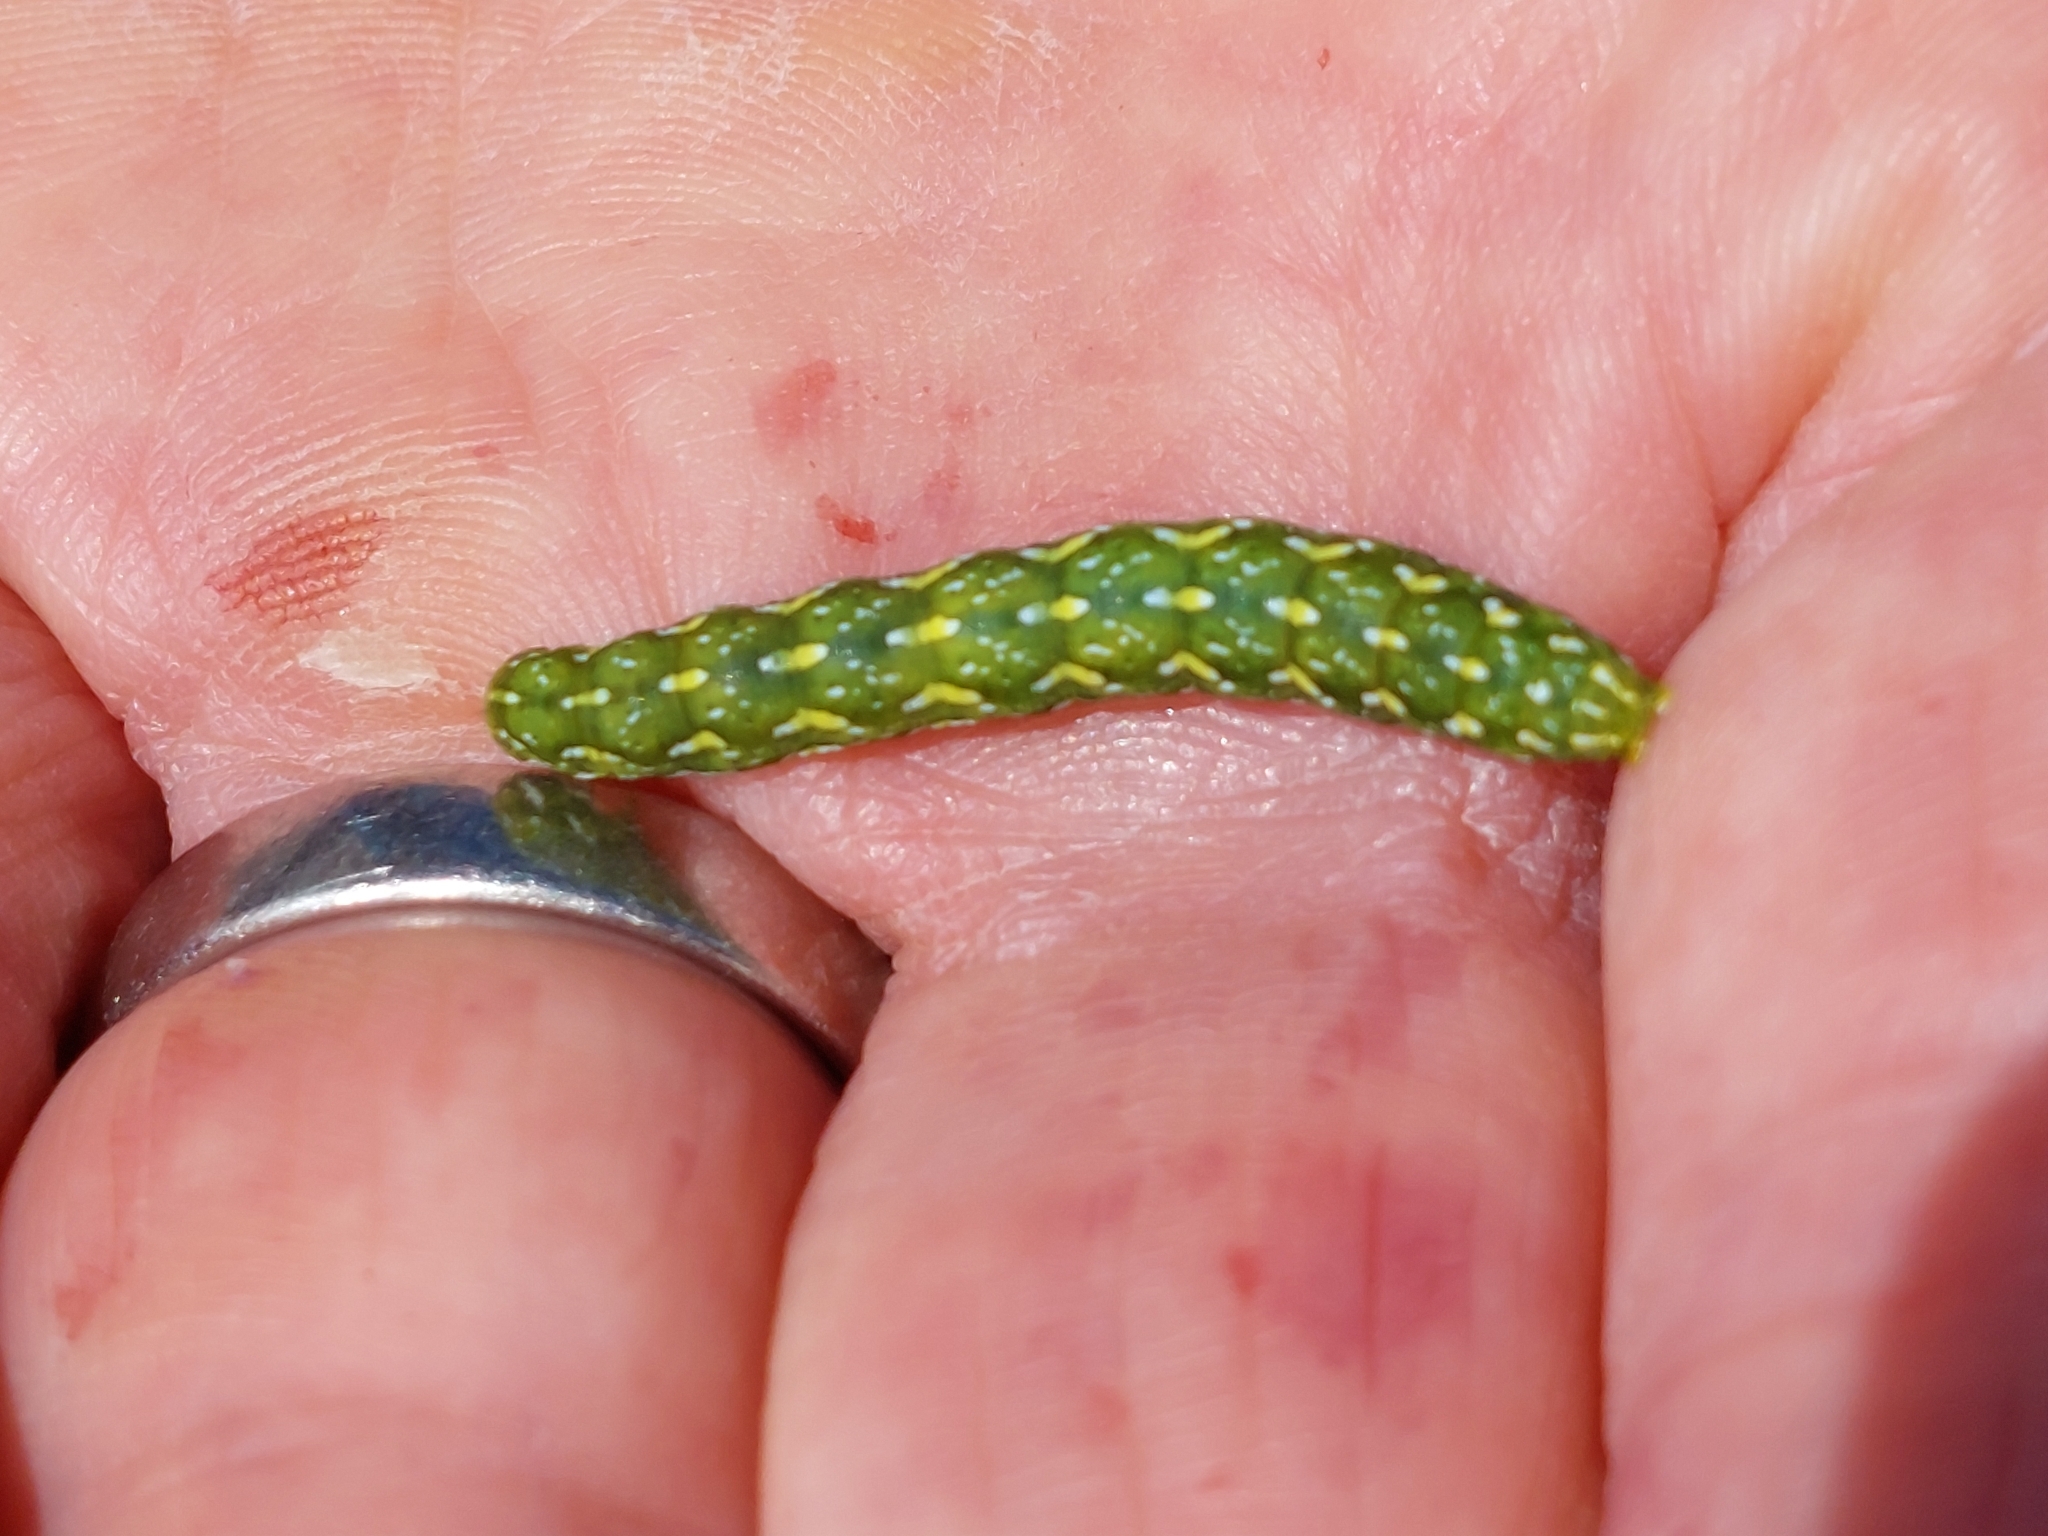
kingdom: Animalia
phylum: Arthropoda
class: Insecta
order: Lepidoptera
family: Noctuidae
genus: Anarta
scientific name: Anarta myrtilli
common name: Beautiful yellow underwing
